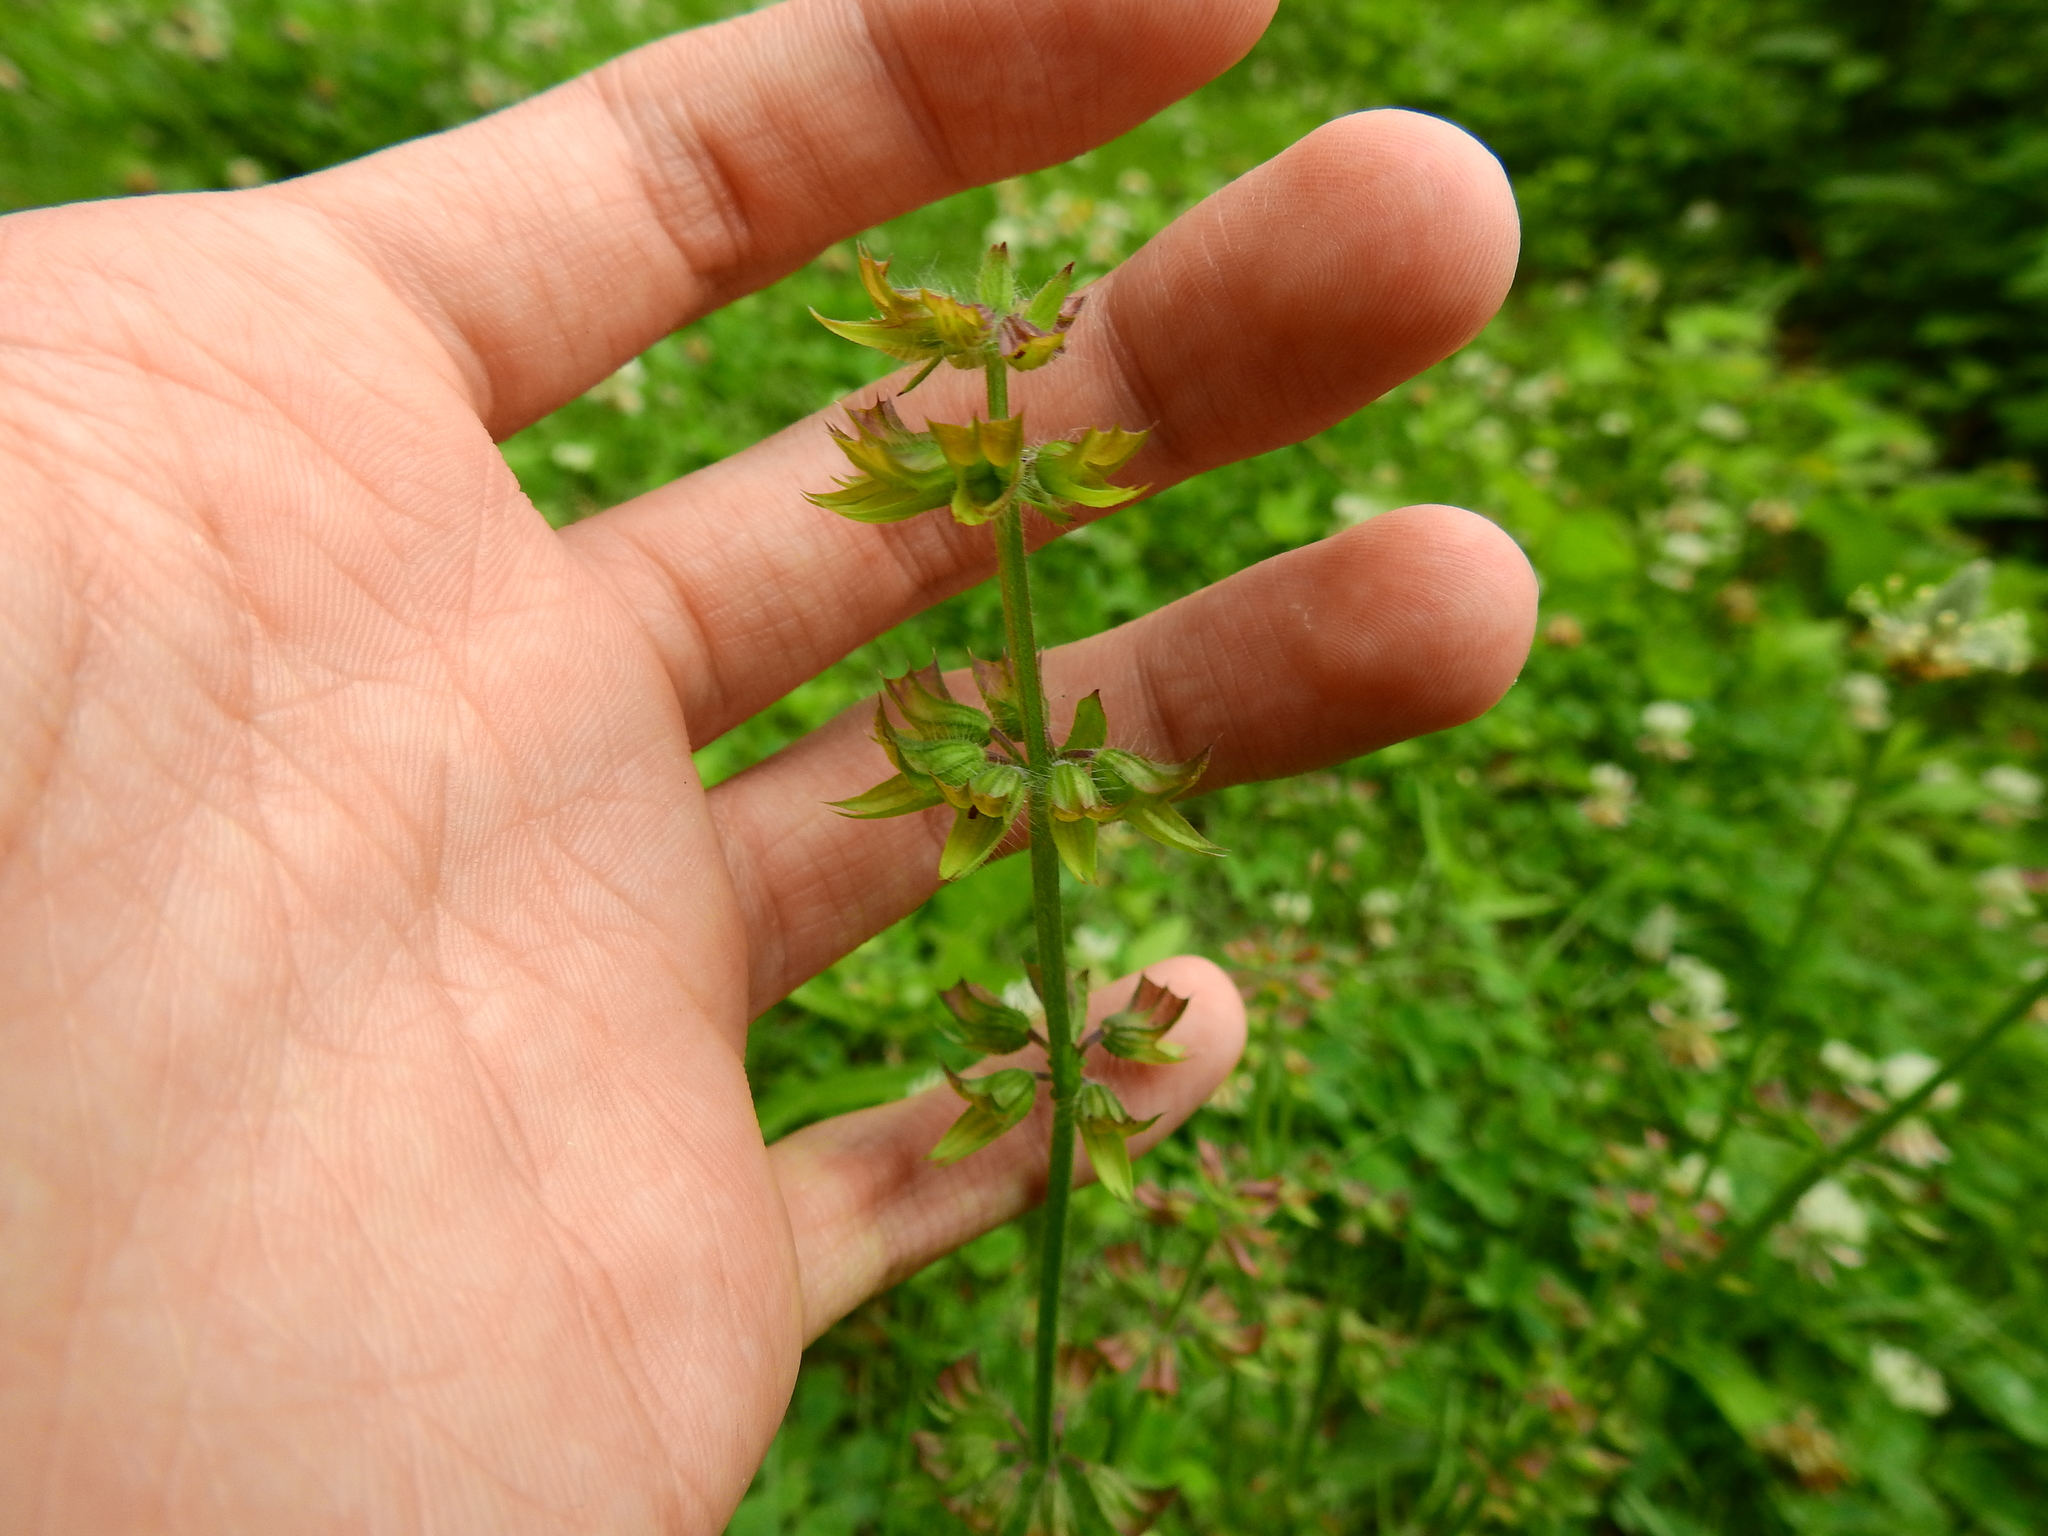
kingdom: Plantae
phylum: Tracheophyta
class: Magnoliopsida
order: Lamiales
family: Lamiaceae
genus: Salvia
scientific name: Salvia lyrata
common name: Cancerweed
